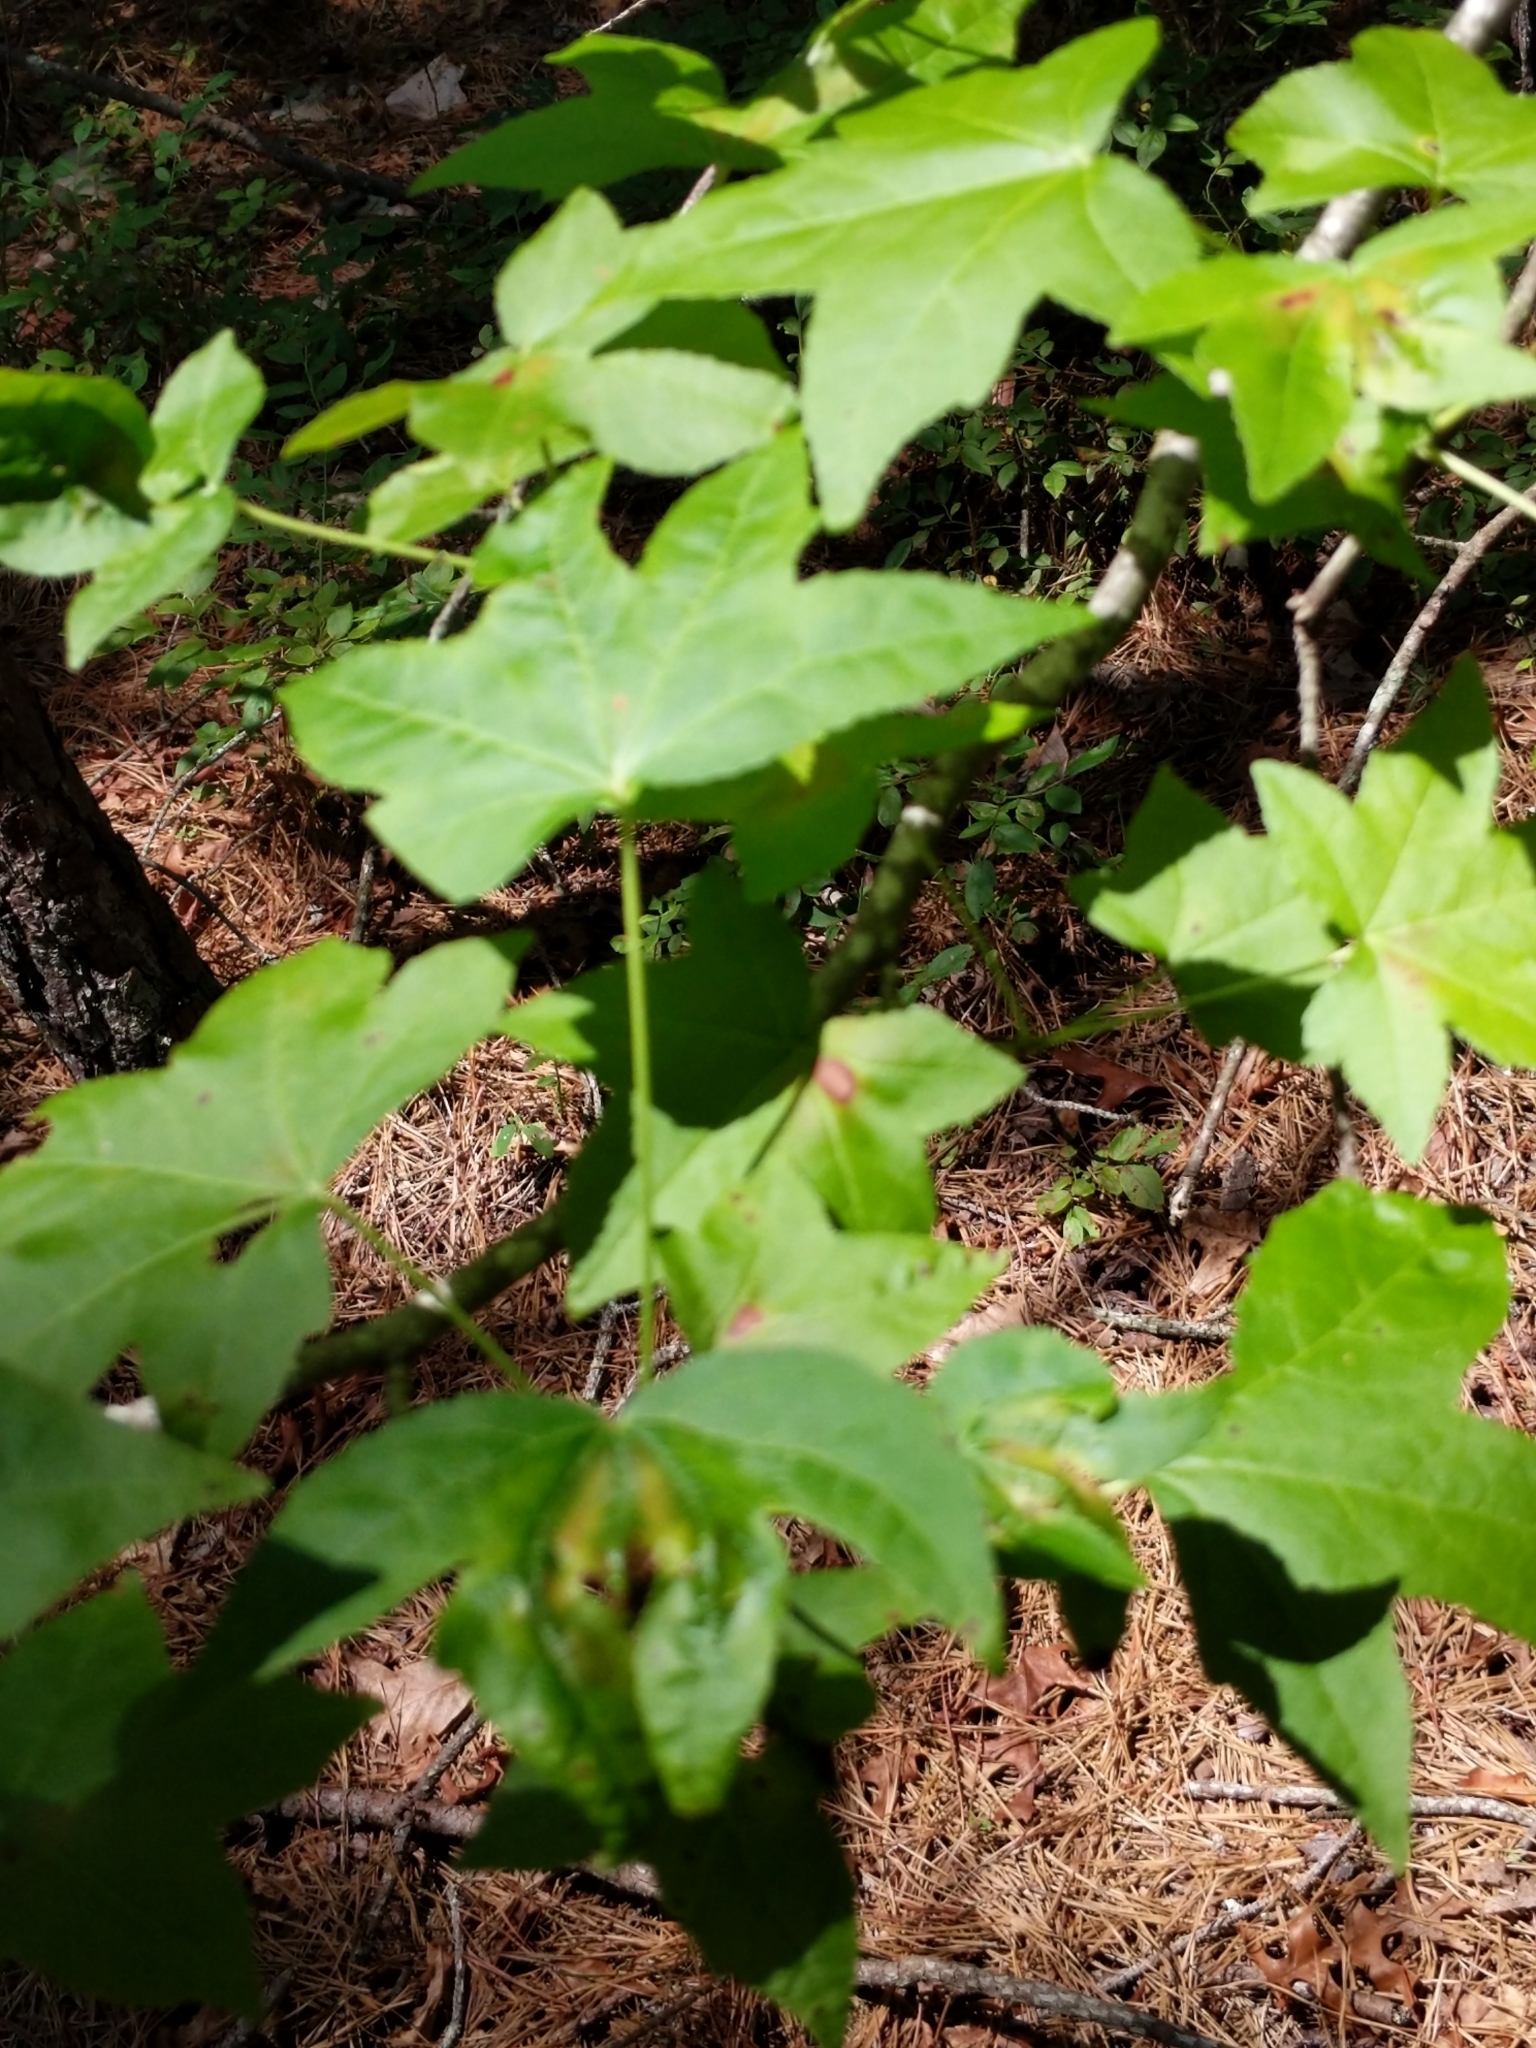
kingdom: Plantae
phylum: Tracheophyta
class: Magnoliopsida
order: Saxifragales
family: Altingiaceae
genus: Liquidambar
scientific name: Liquidambar styraciflua
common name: Sweet gum
